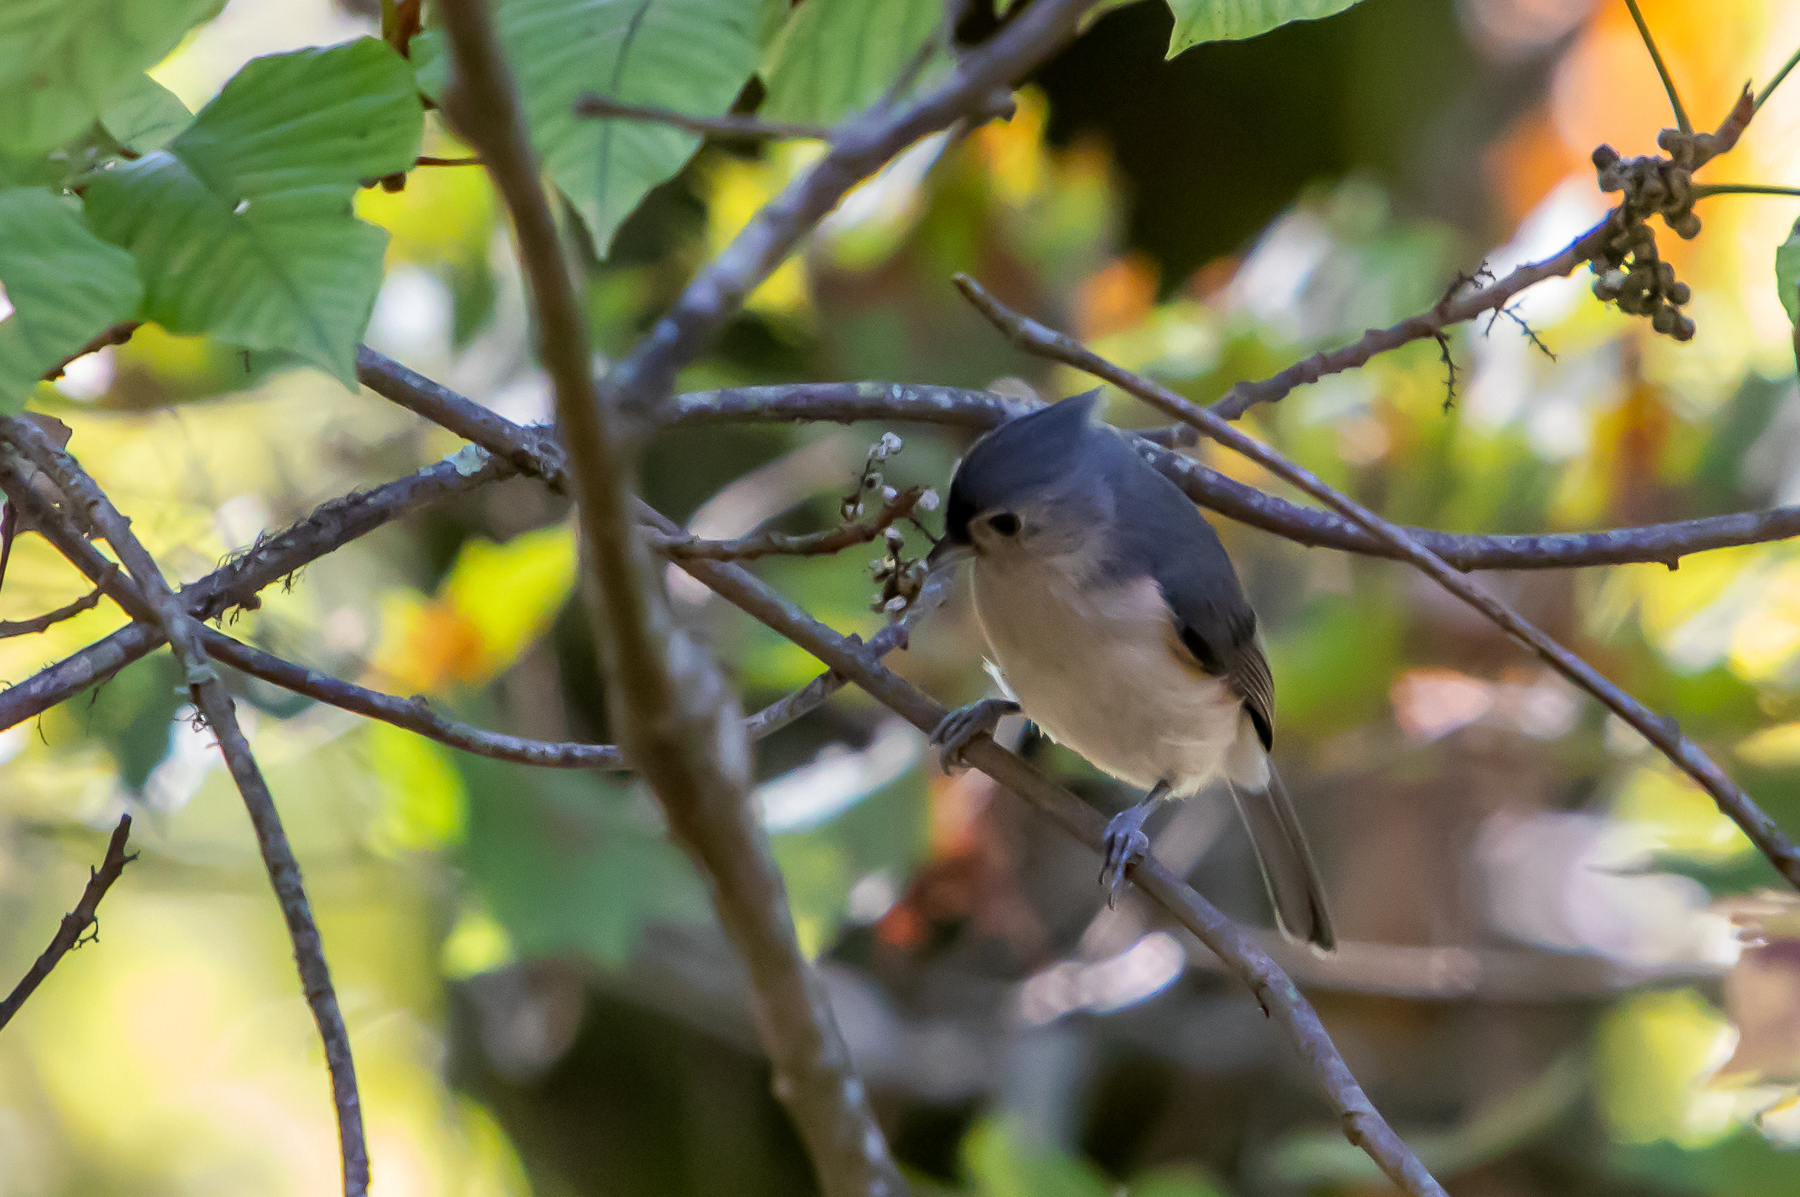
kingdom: Animalia
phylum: Chordata
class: Aves
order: Passeriformes
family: Paridae
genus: Baeolophus
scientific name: Baeolophus bicolor
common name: Tufted titmouse
